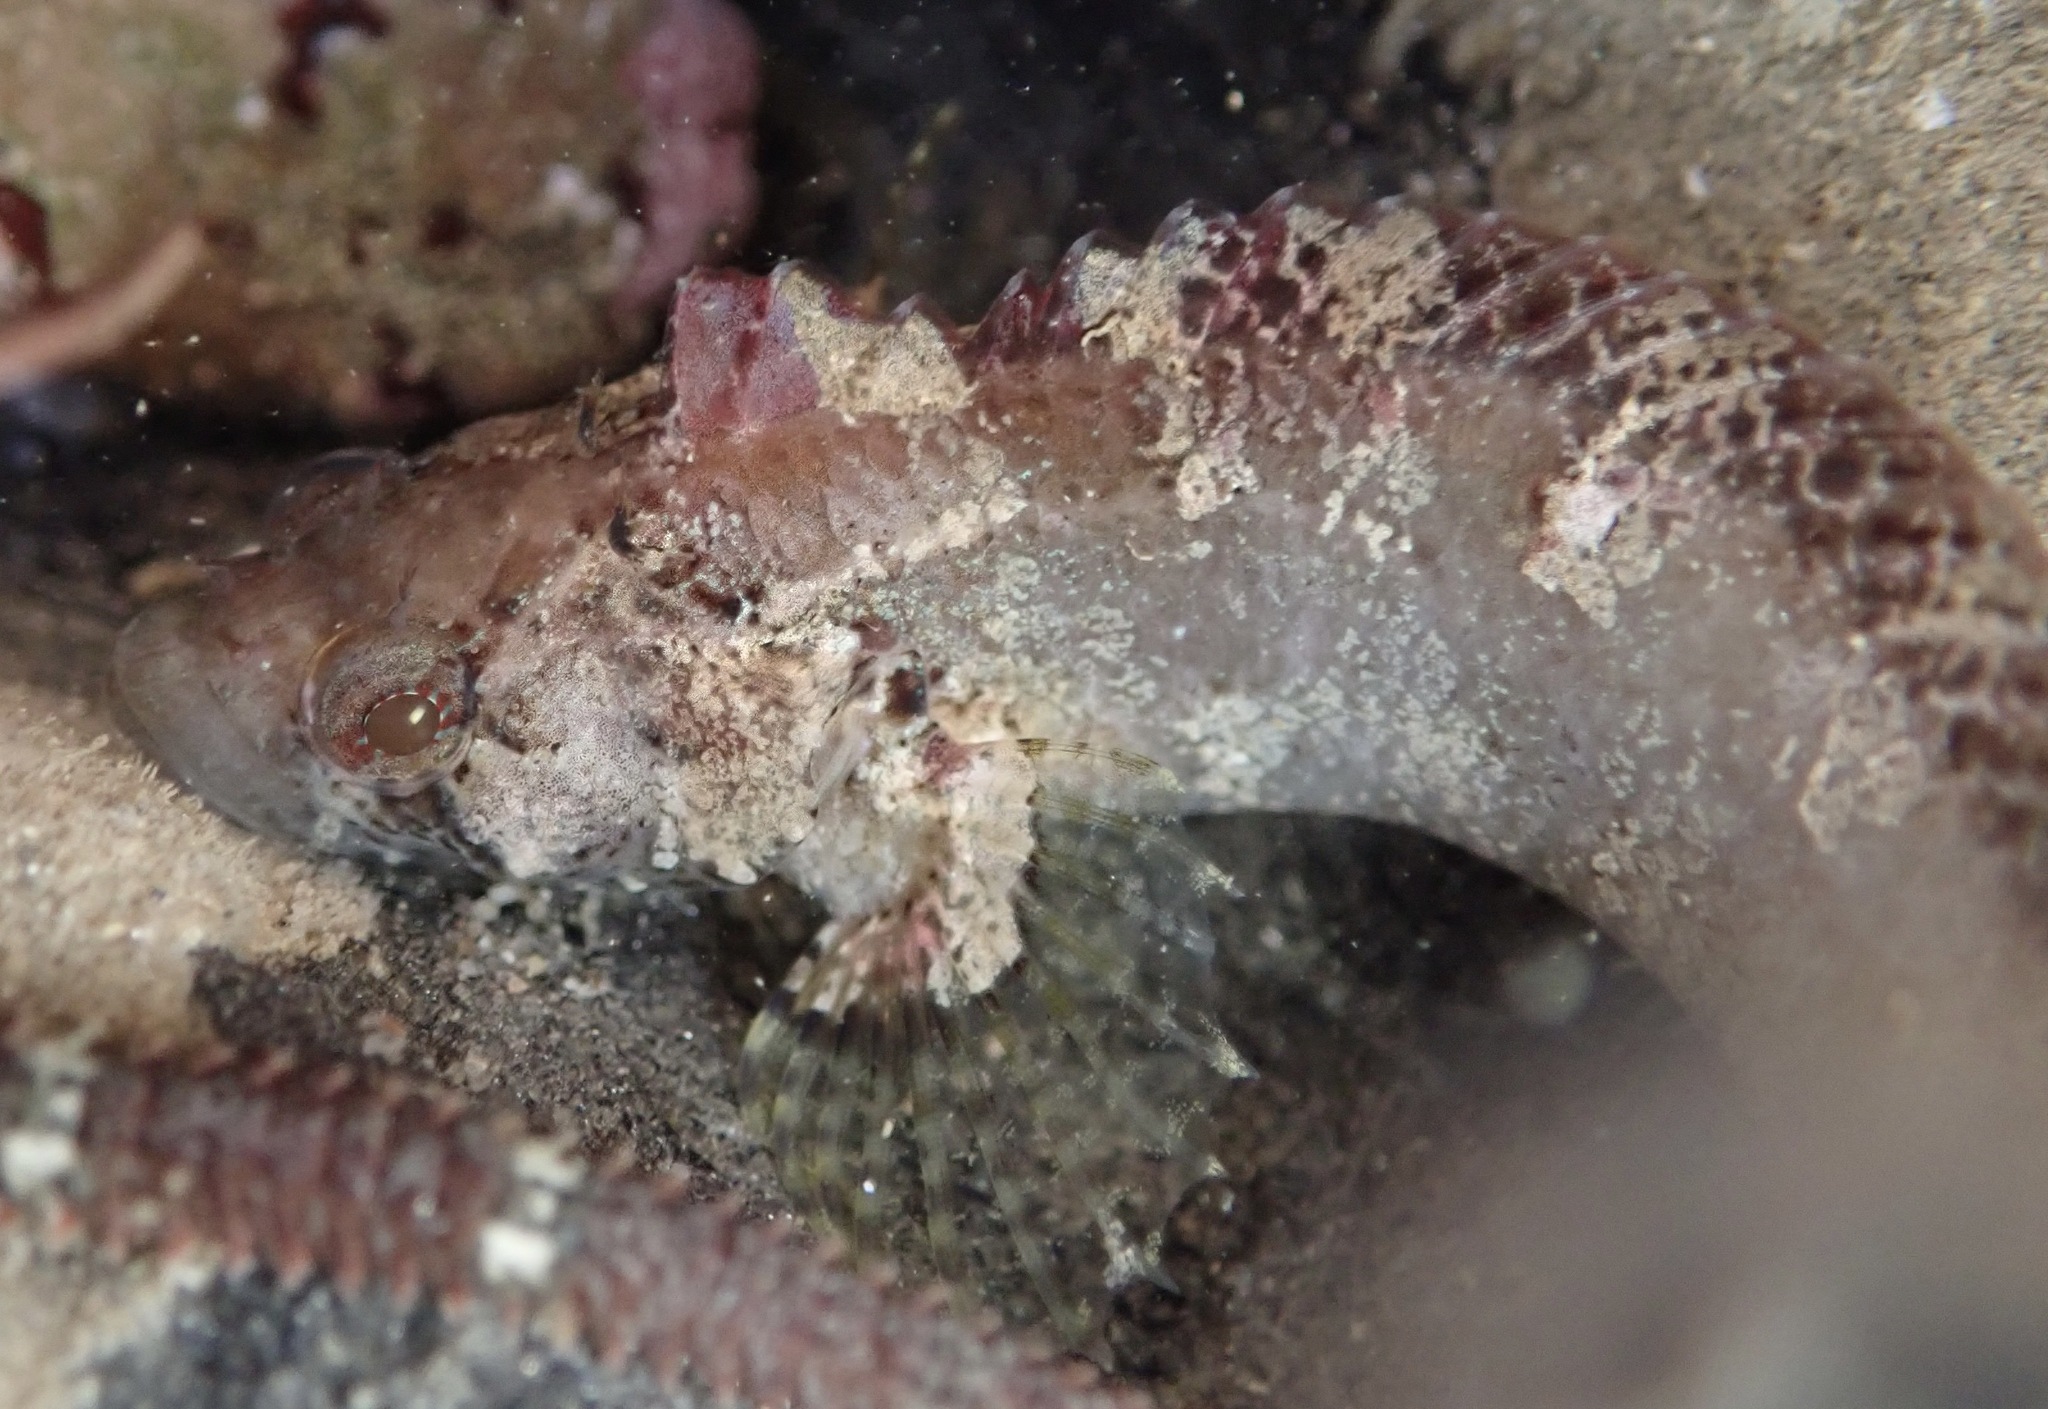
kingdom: Animalia
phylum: Chordata
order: Perciformes
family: Labrisomidae
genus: Paraclinus
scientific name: Paraclinus integripinnis
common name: Reef finspot
